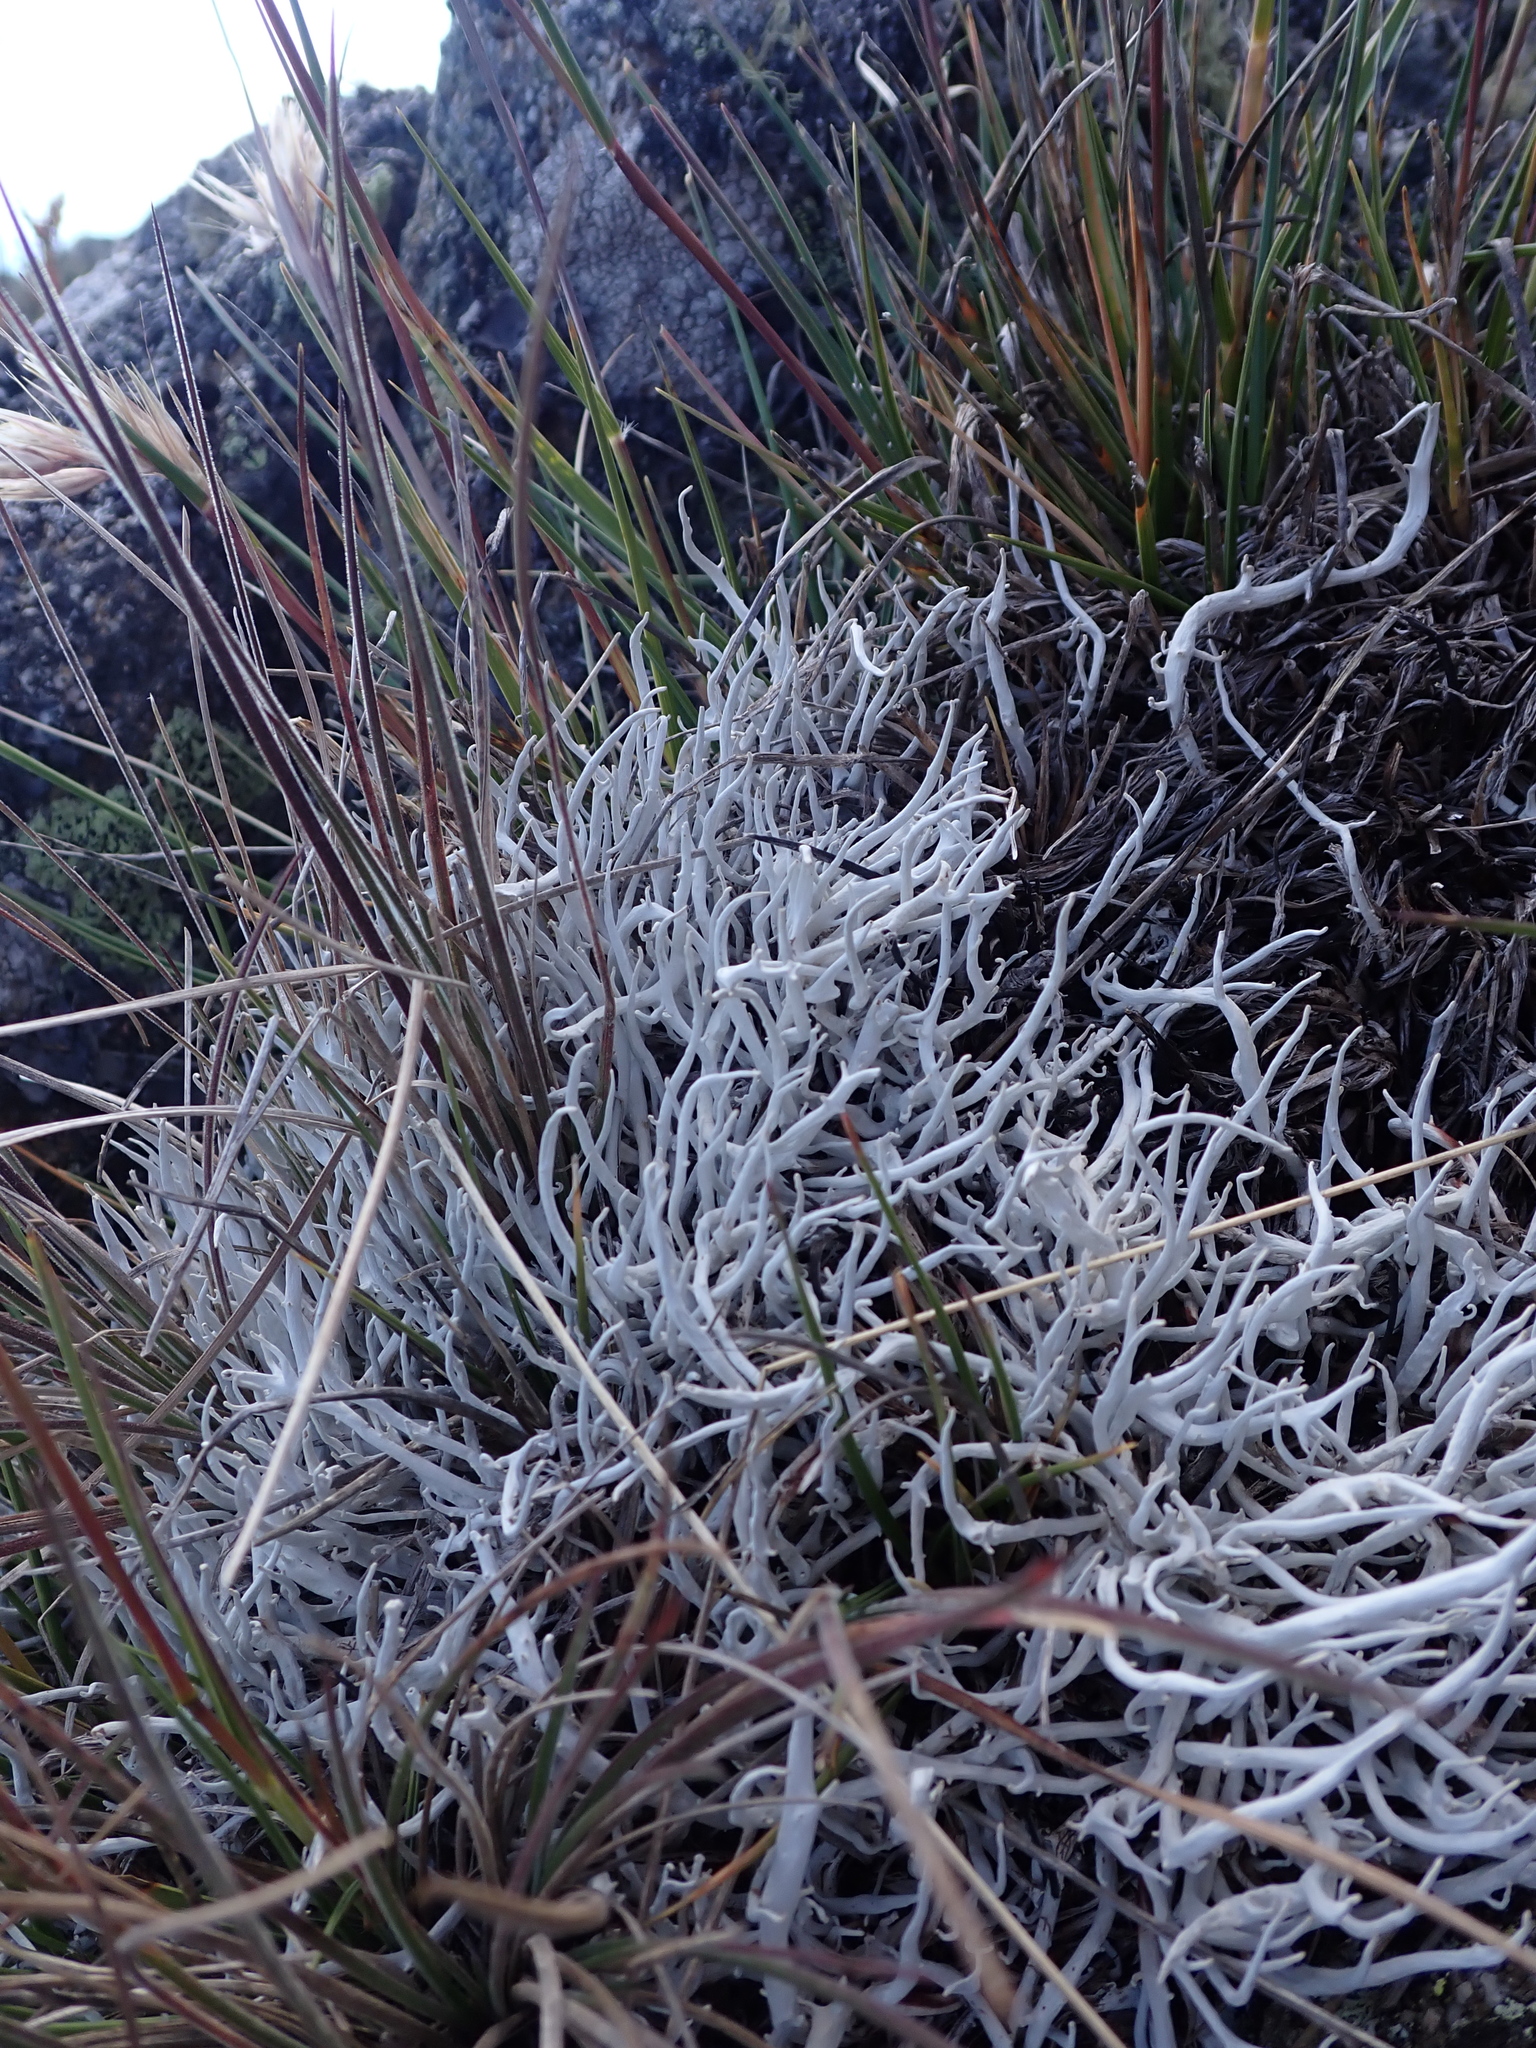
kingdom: Fungi
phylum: Ascomycota
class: Lecanoromycetes
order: Pertusariales
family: Icmadophilaceae
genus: Thamnolia
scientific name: Thamnolia vermicularis
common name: Whiteworm lichen
